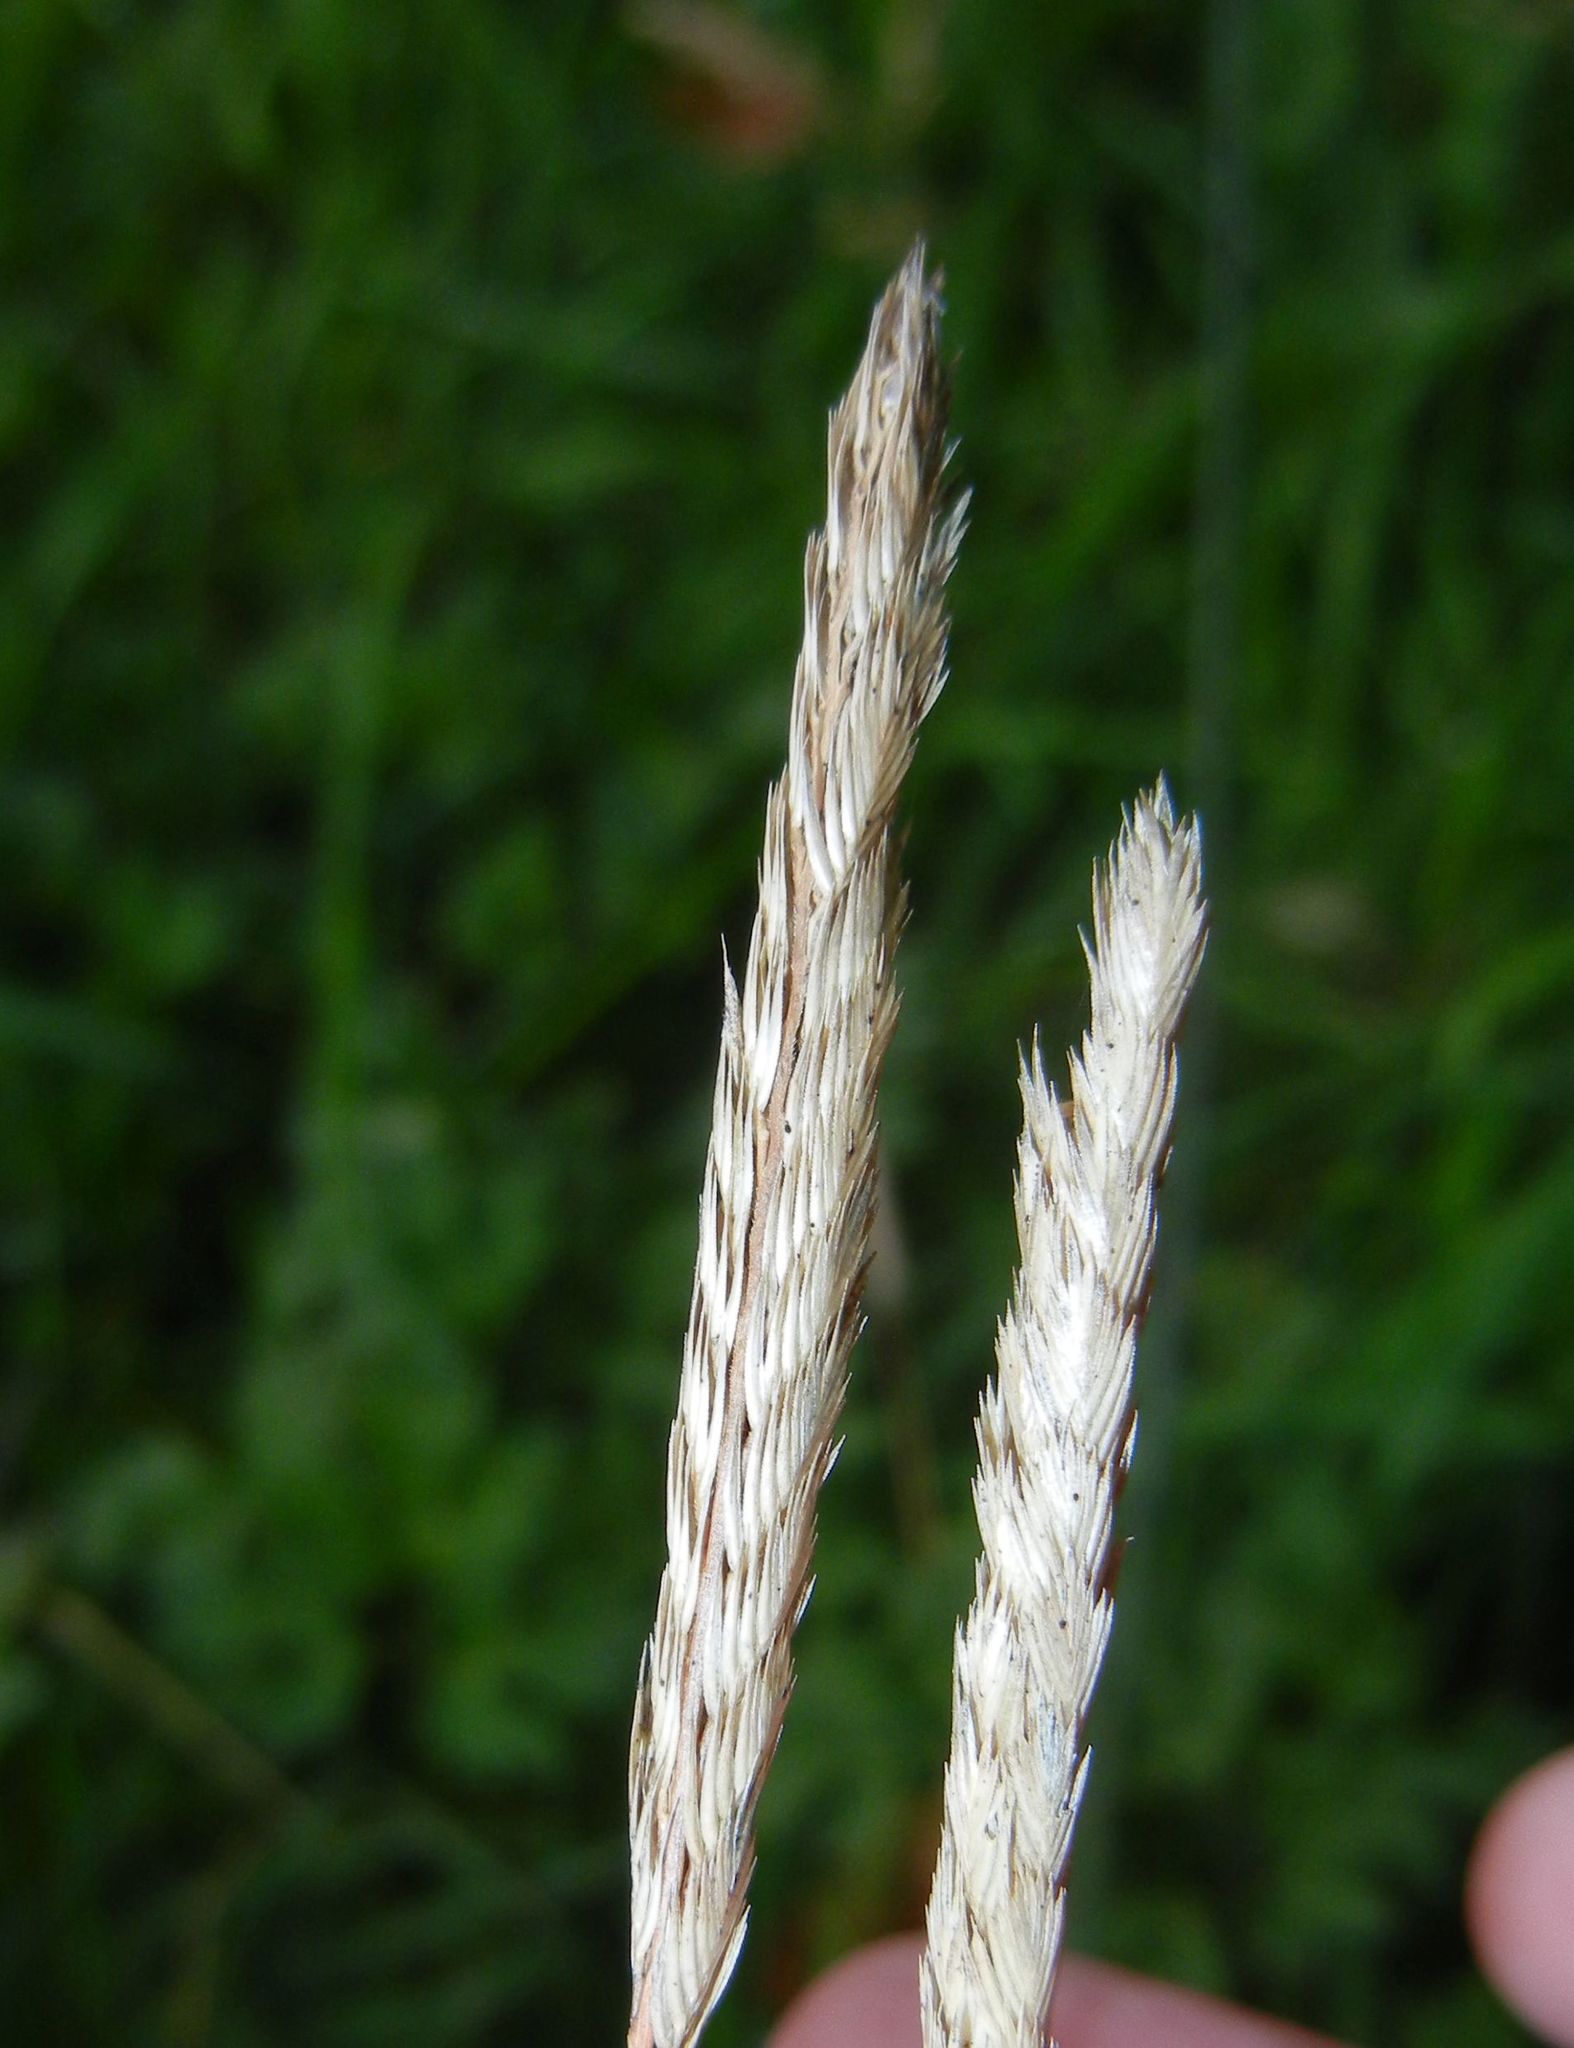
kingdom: Plantae
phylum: Tracheophyta
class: Liliopsida
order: Poales
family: Poaceae
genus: Cynosurus
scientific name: Cynosurus cristatus
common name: Crested dog's-tail
